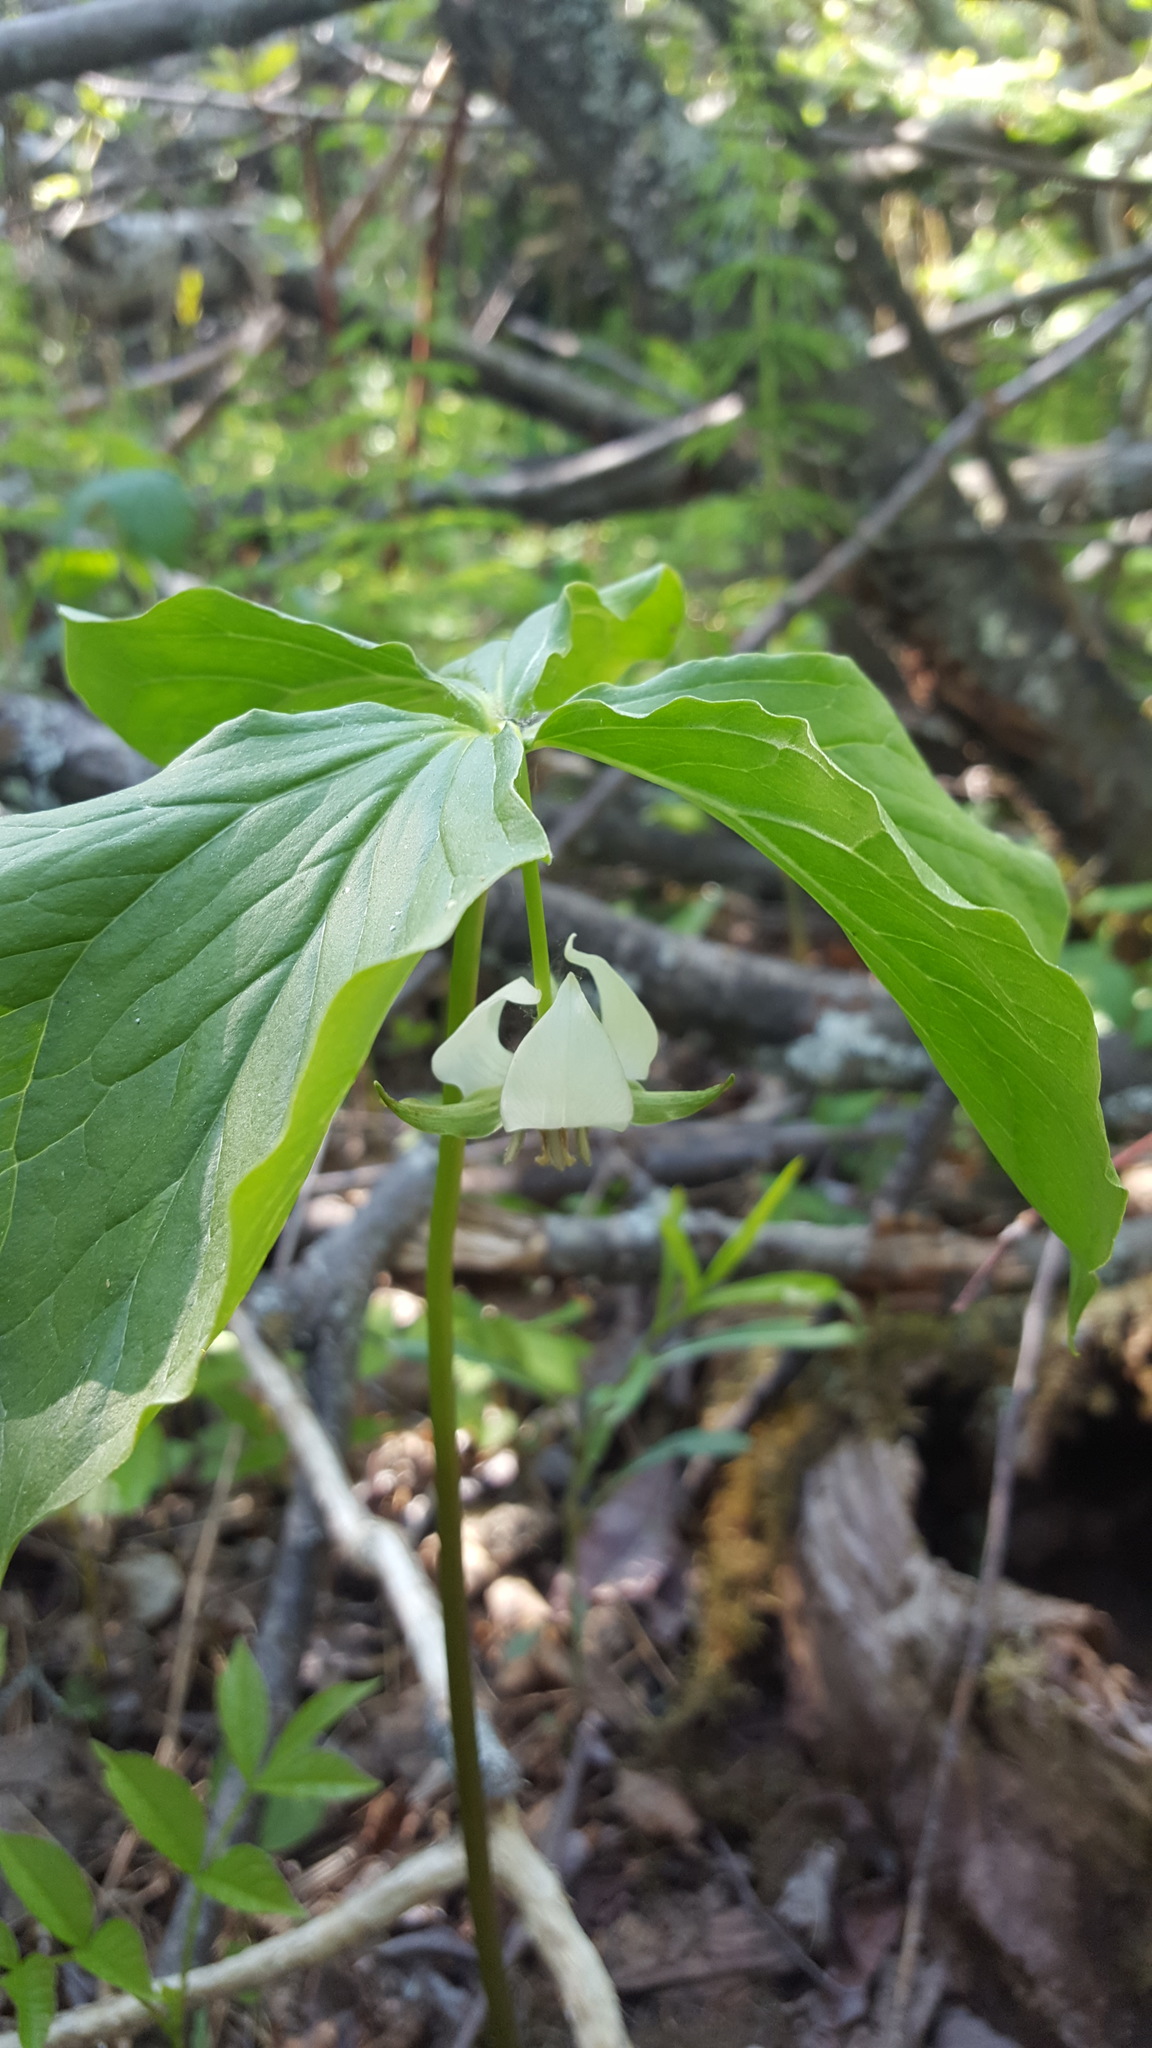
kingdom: Plantae
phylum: Tracheophyta
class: Liliopsida
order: Liliales
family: Melanthiaceae
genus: Trillium
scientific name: Trillium cernuum
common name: Nodding trillium
